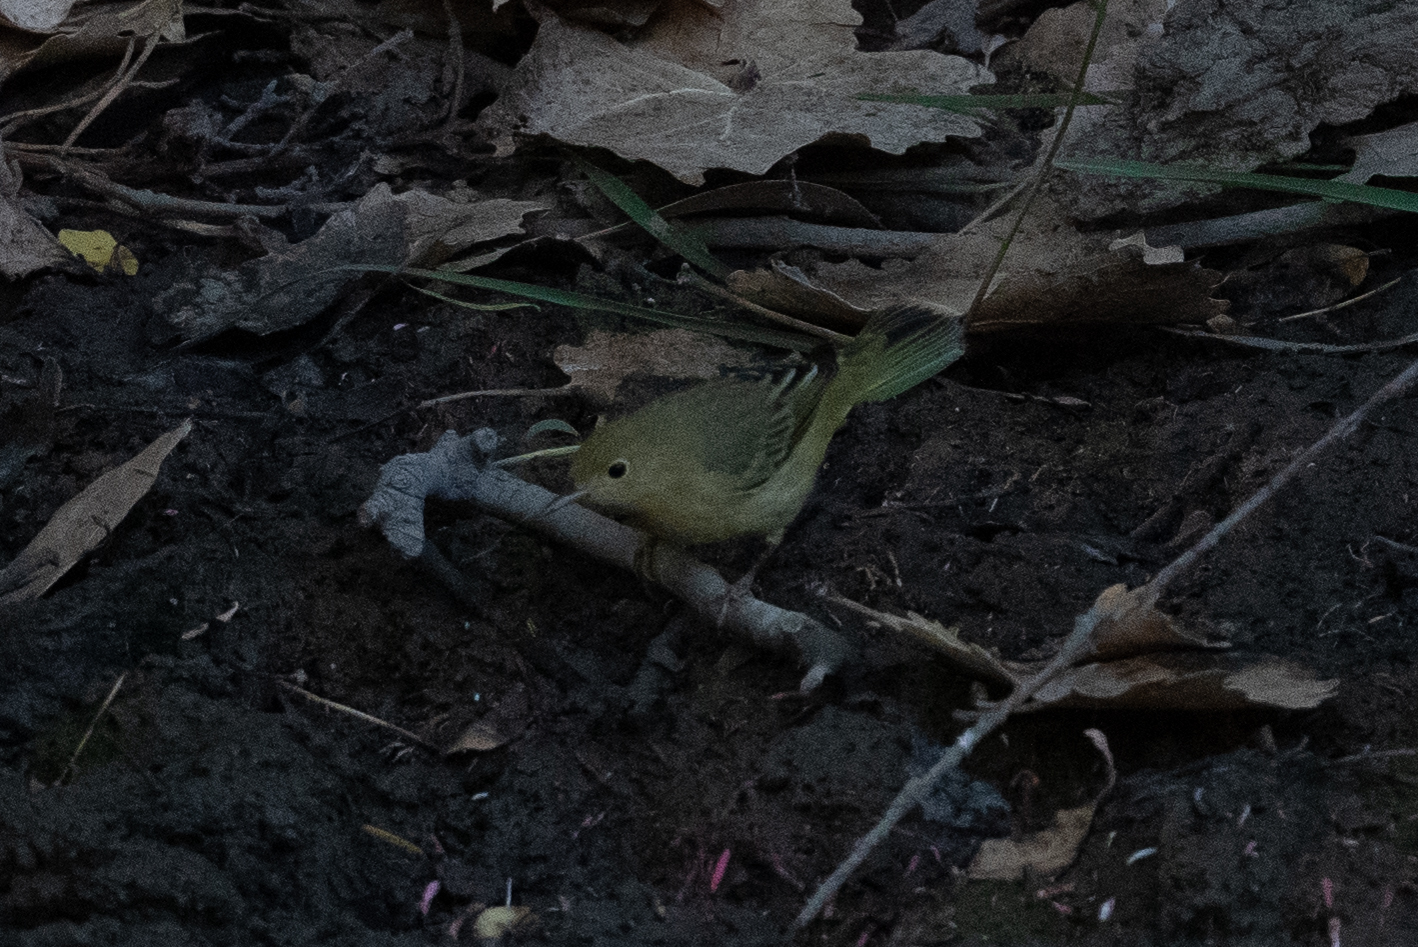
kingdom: Animalia
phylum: Chordata
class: Aves
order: Passeriformes
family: Parulidae
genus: Setophaga
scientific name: Setophaga petechia
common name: Yellow warbler
